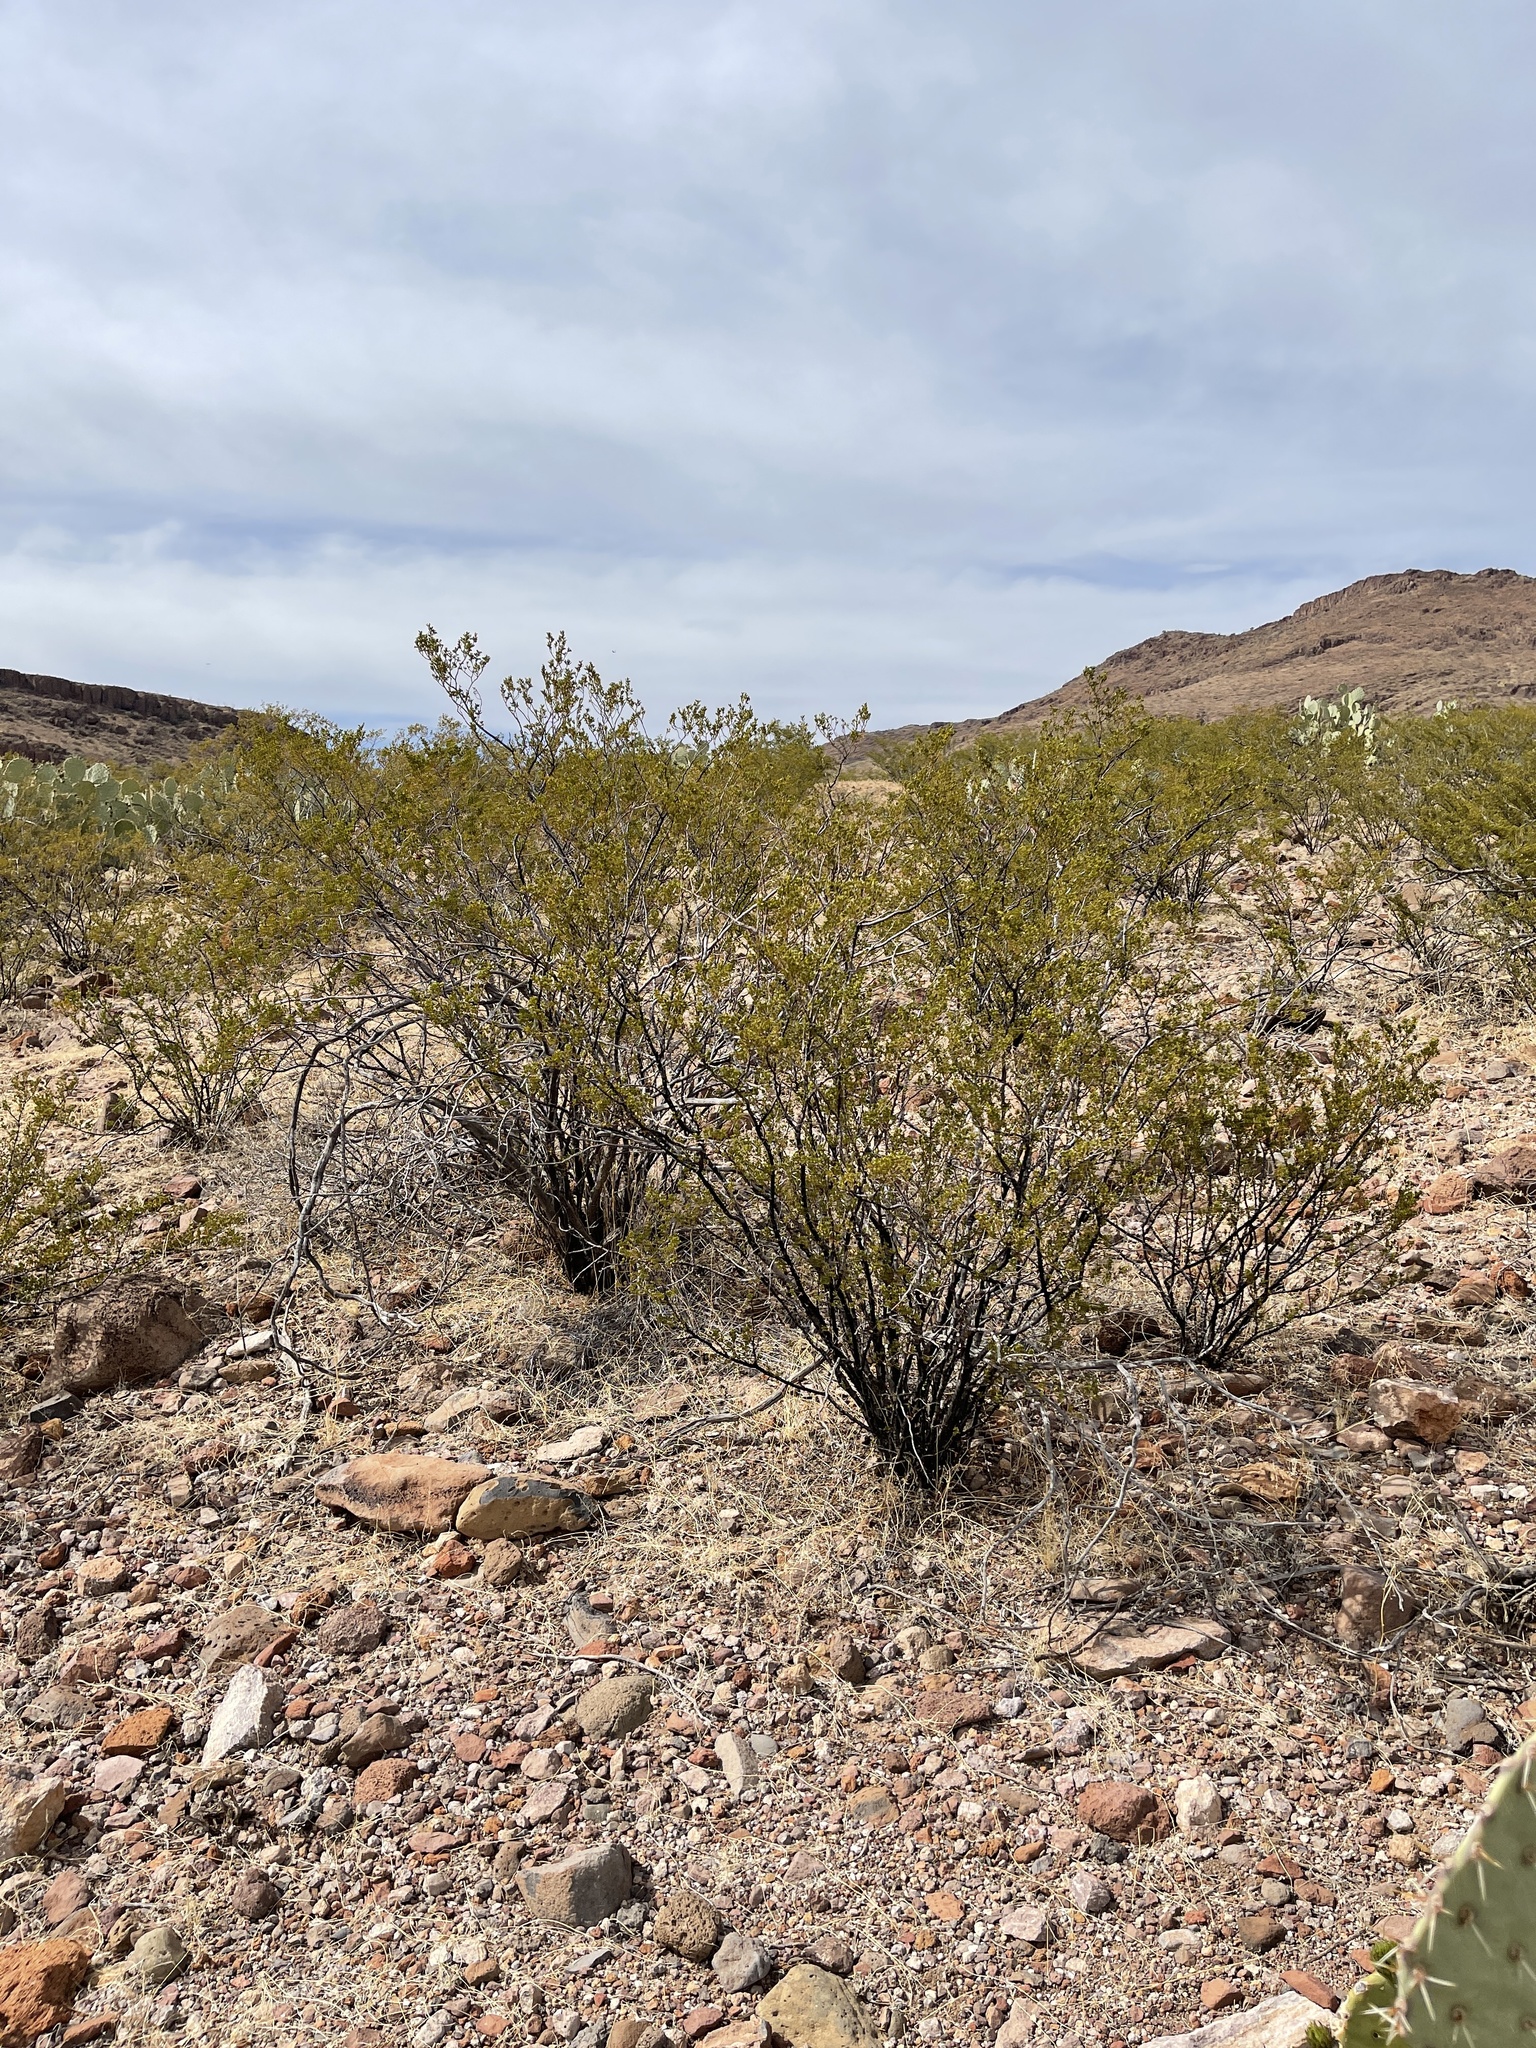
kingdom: Plantae
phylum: Tracheophyta
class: Magnoliopsida
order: Zygophyllales
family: Zygophyllaceae
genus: Larrea
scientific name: Larrea tridentata
